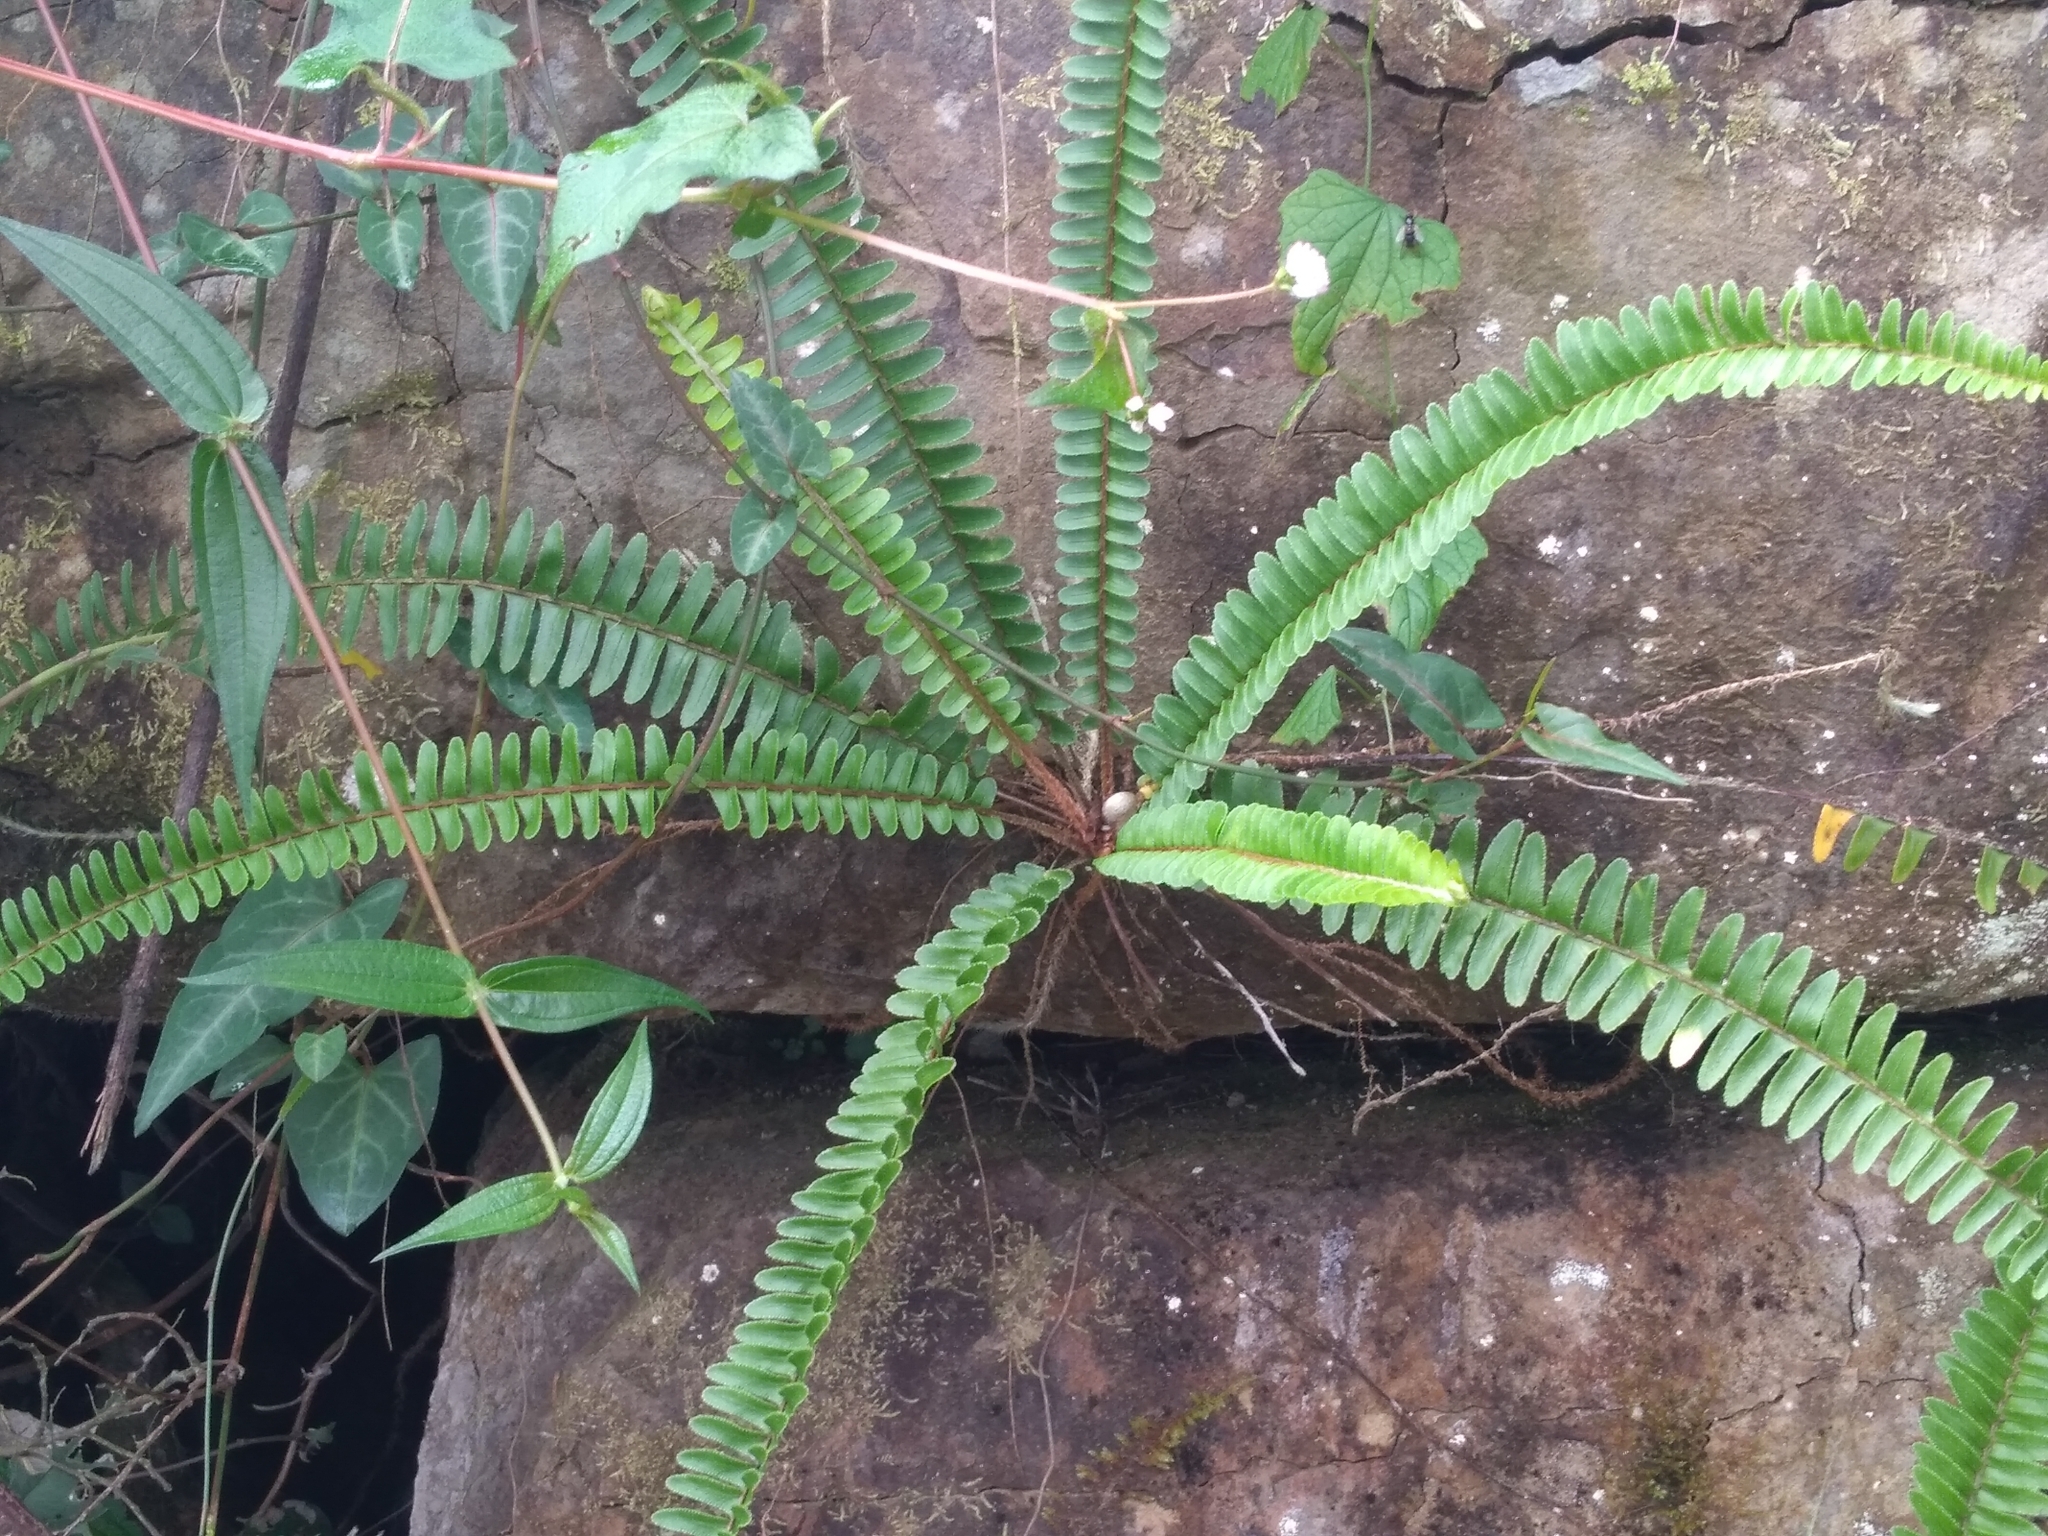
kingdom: Plantae
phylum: Tracheophyta
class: Polypodiopsida
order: Polypodiales
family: Nephrolepidaceae
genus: Nephrolepis
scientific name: Nephrolepis cordifolia
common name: Narrow swordfern
